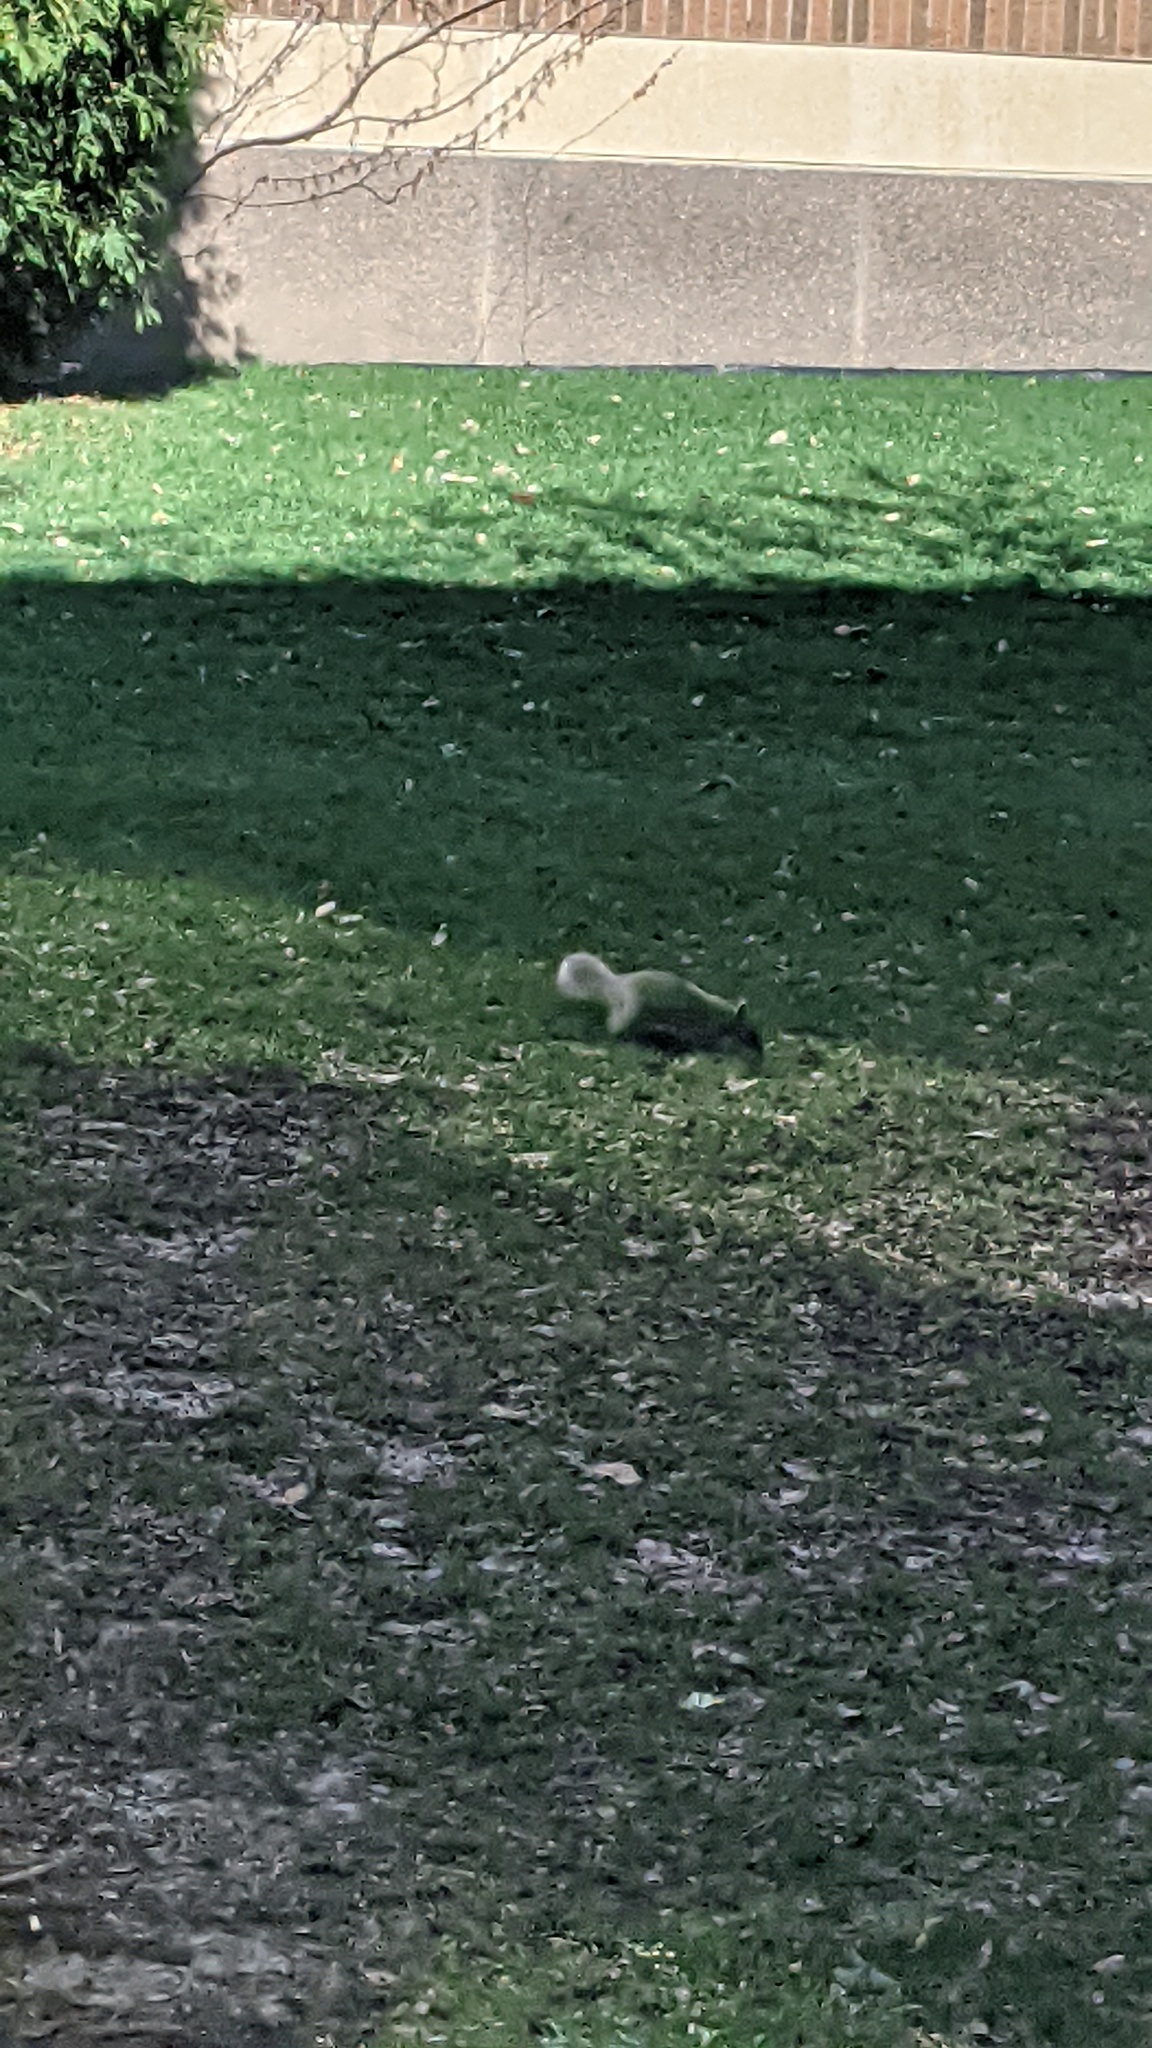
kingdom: Animalia
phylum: Chordata
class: Mammalia
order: Rodentia
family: Sciuridae
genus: Sciurus
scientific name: Sciurus carolinensis
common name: Eastern gray squirrel
